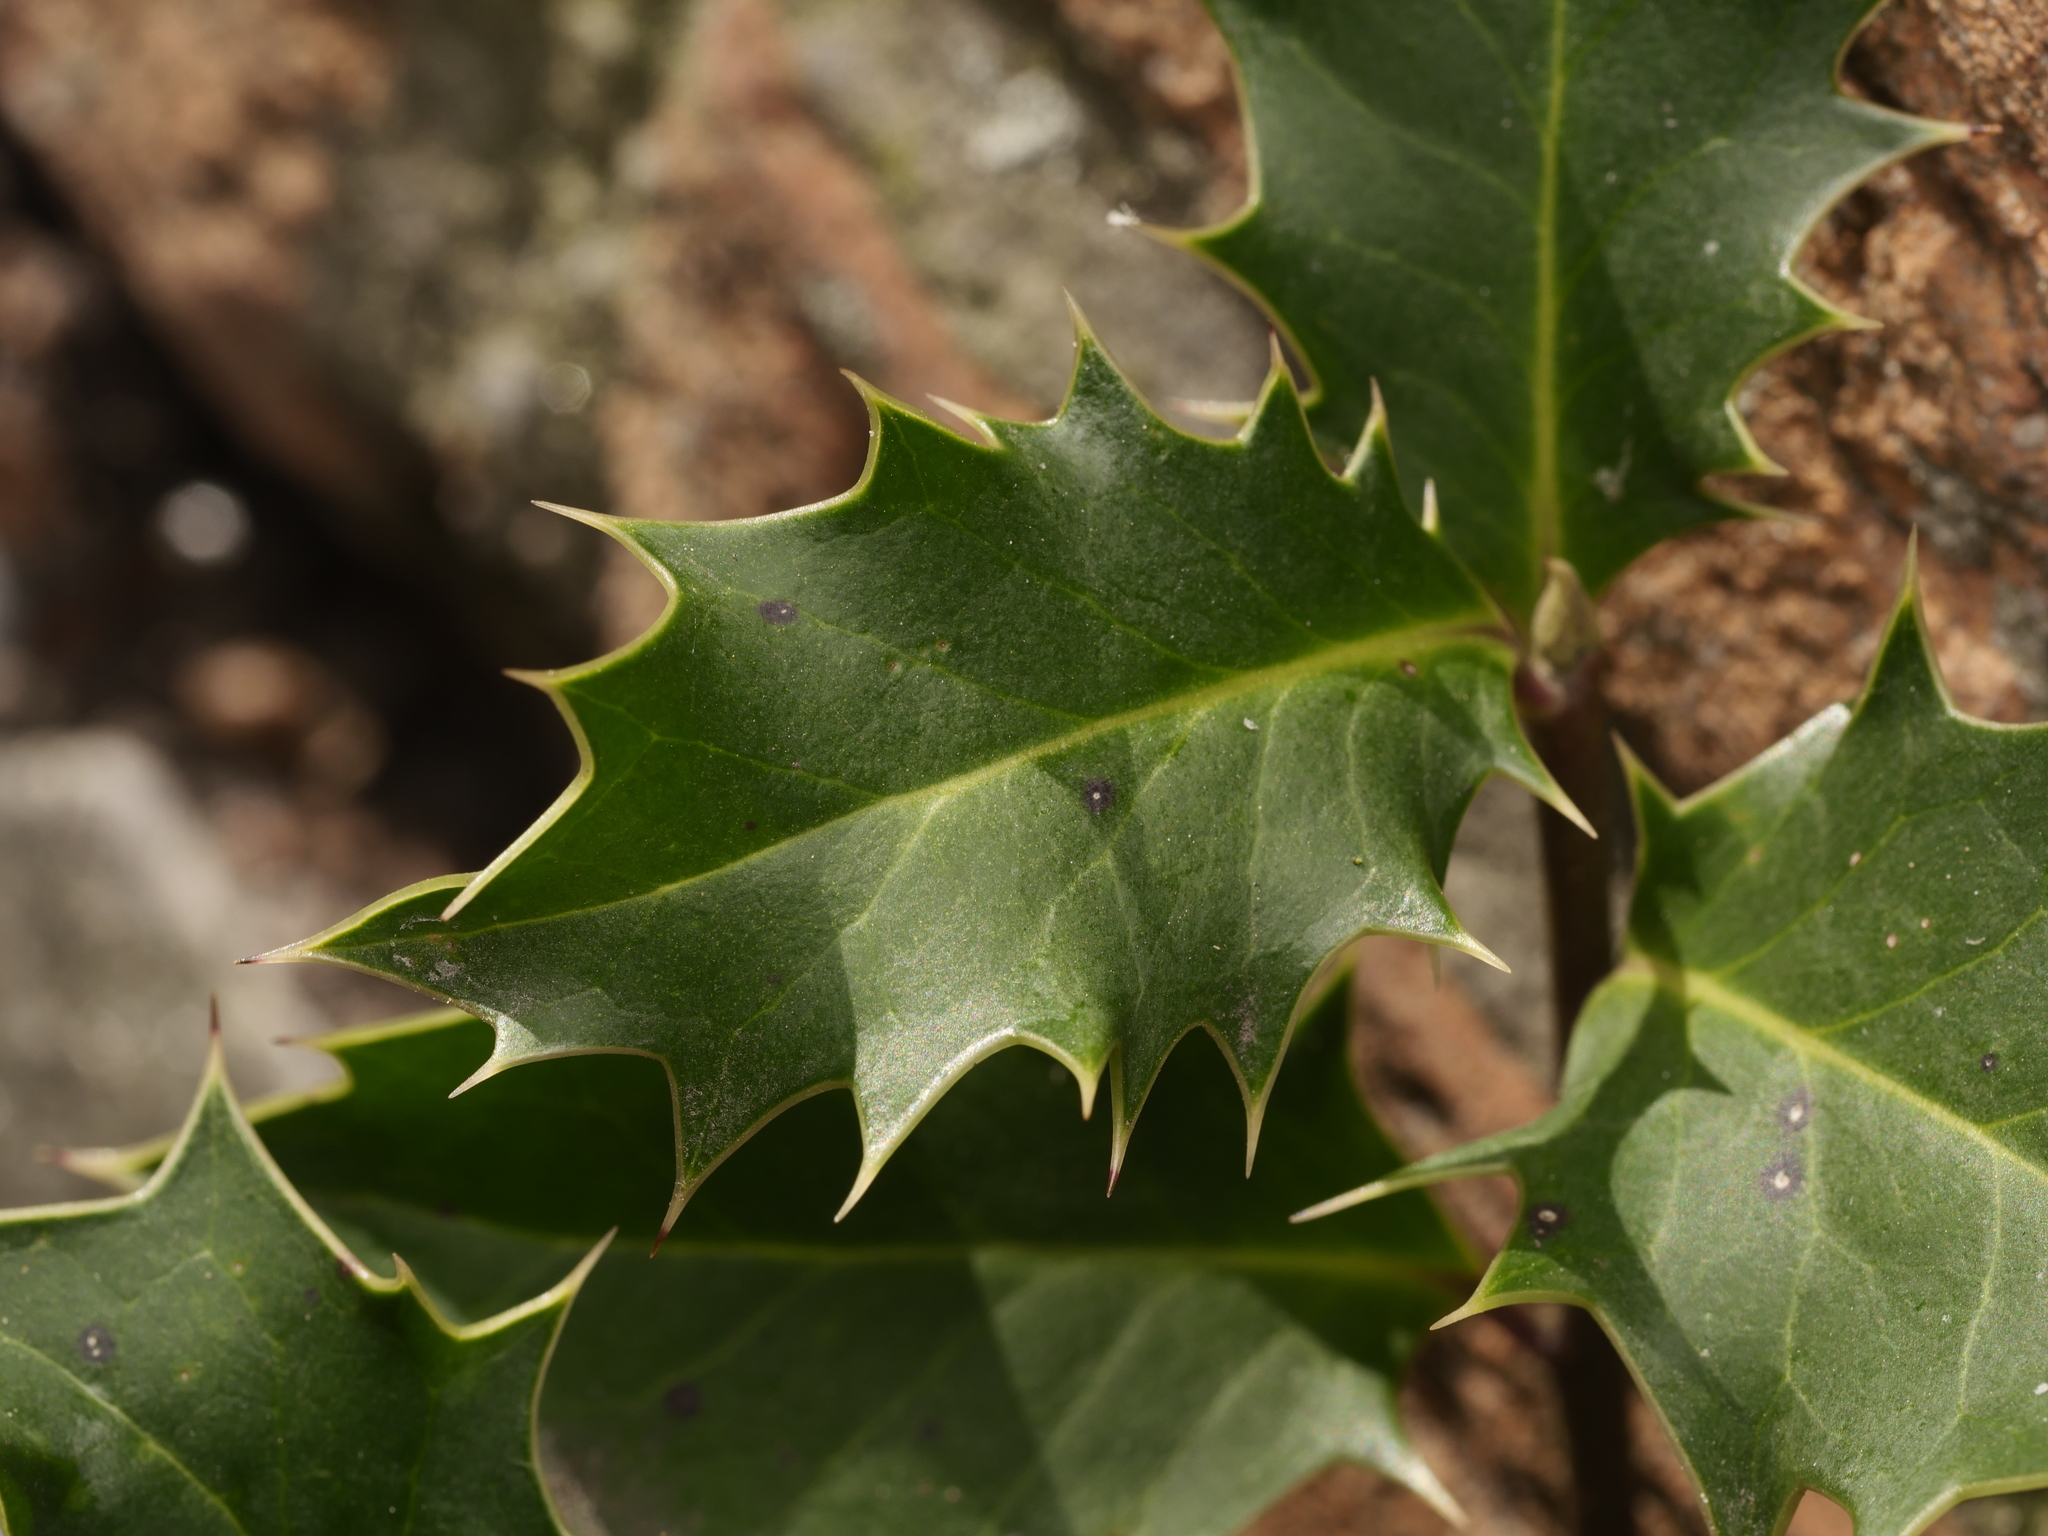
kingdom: Plantae
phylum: Tracheophyta
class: Magnoliopsida
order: Aquifoliales
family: Aquifoliaceae
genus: Ilex
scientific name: Ilex aquifolium
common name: English holly
